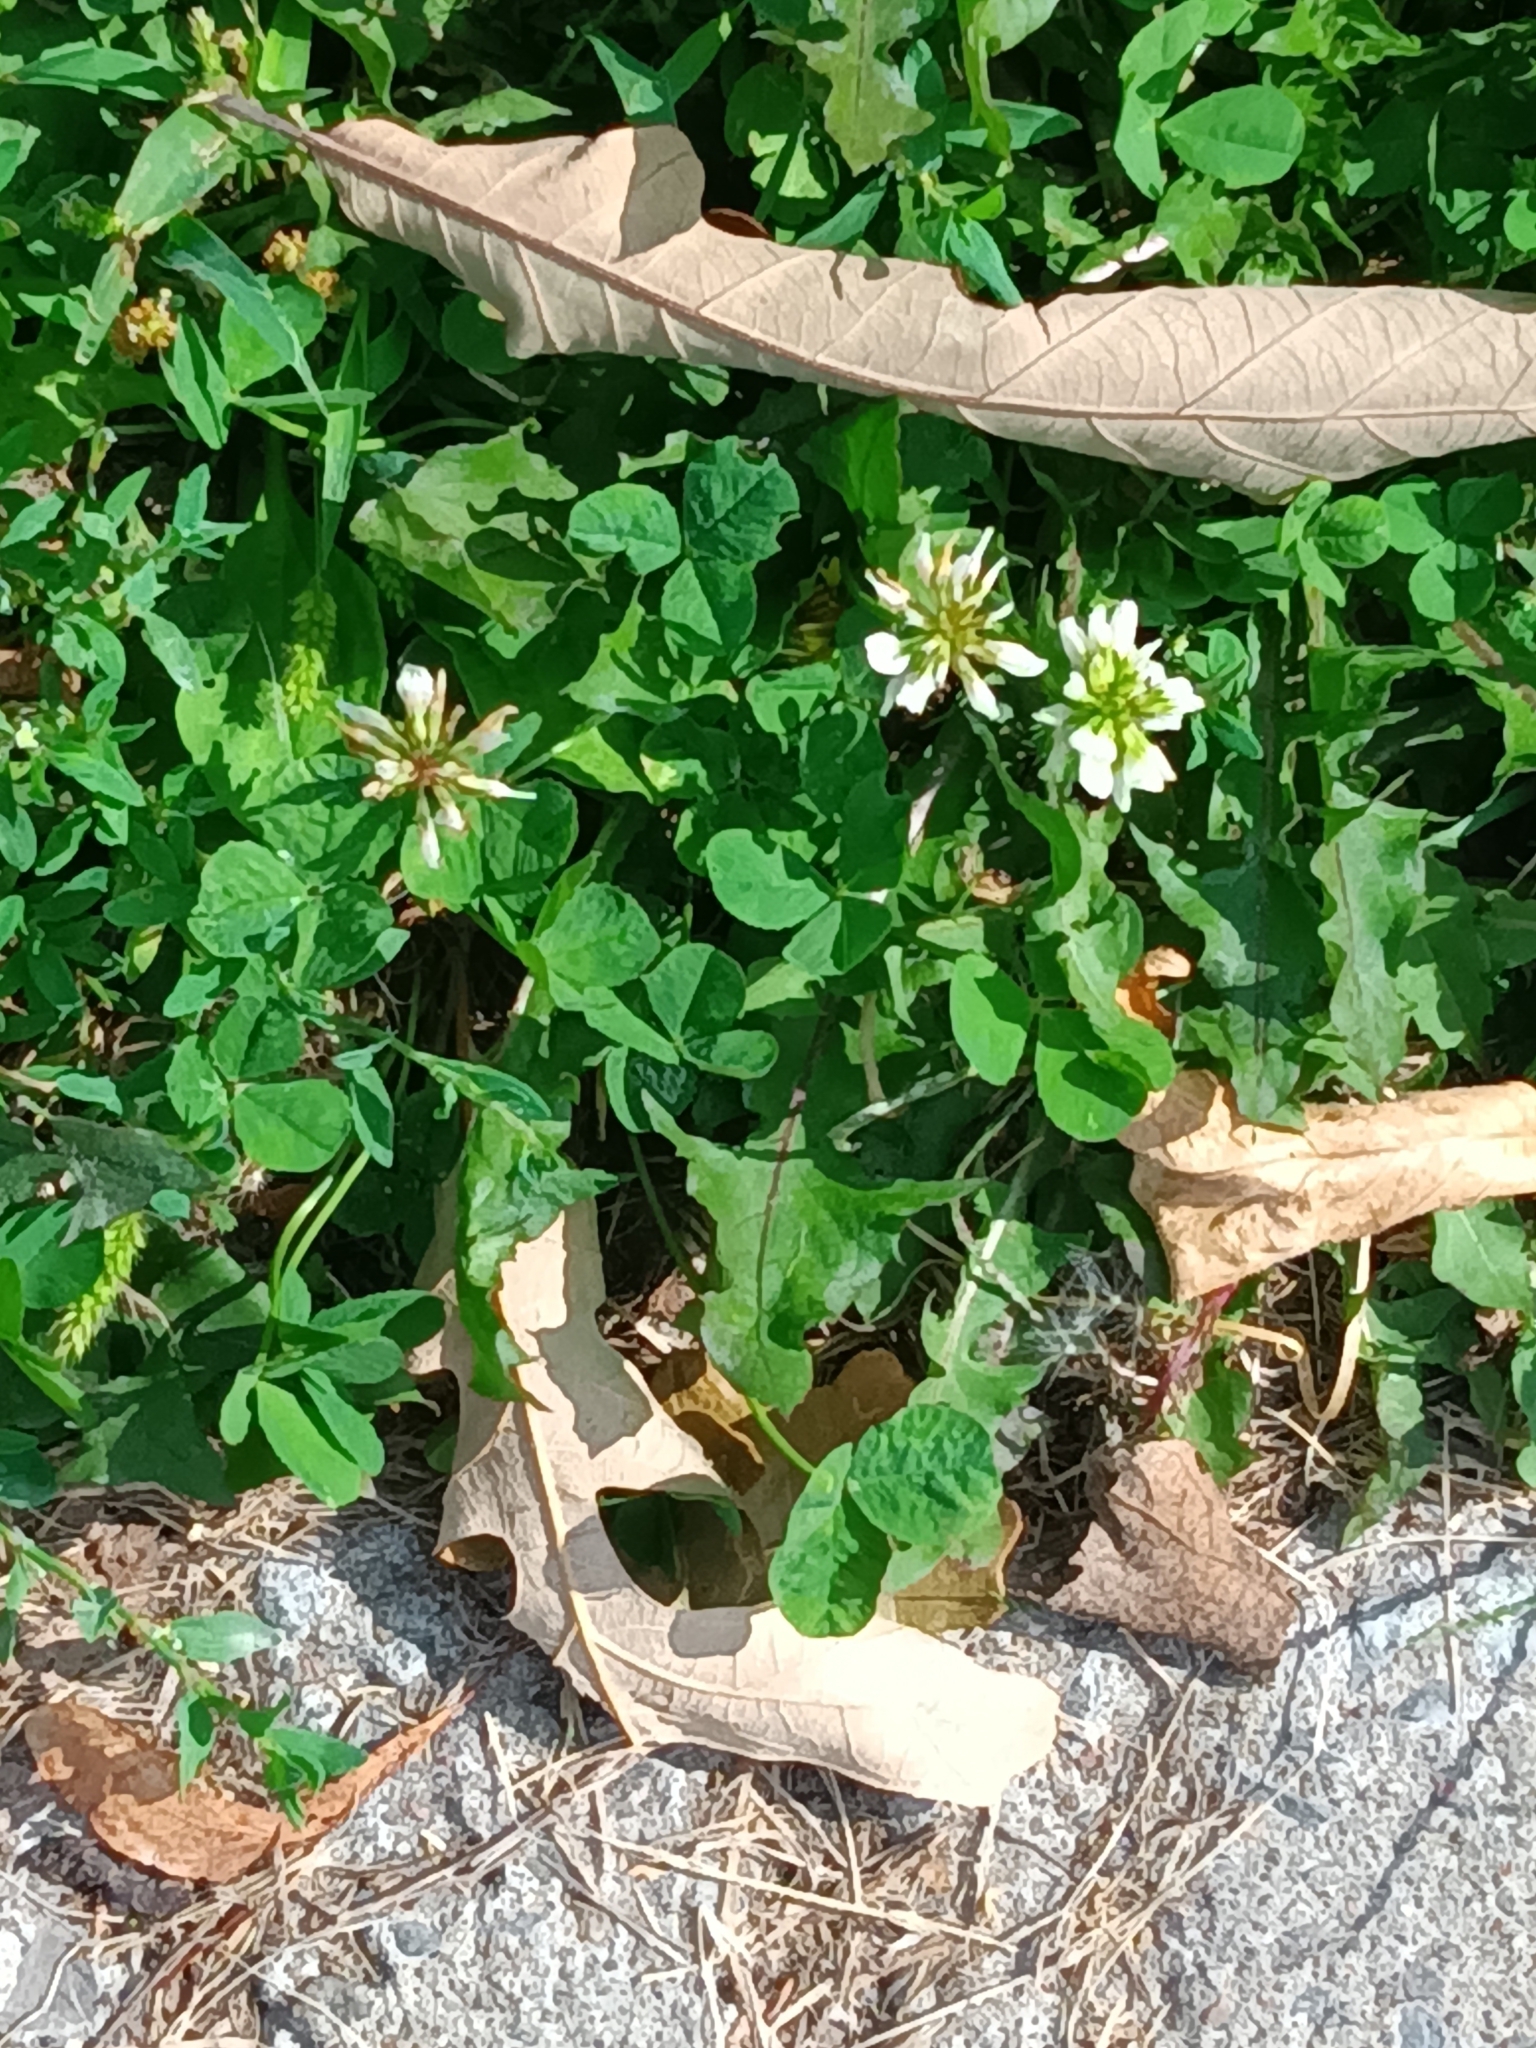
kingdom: Plantae
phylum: Tracheophyta
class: Magnoliopsida
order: Fabales
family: Fabaceae
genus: Trifolium
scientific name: Trifolium repens
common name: White clover
